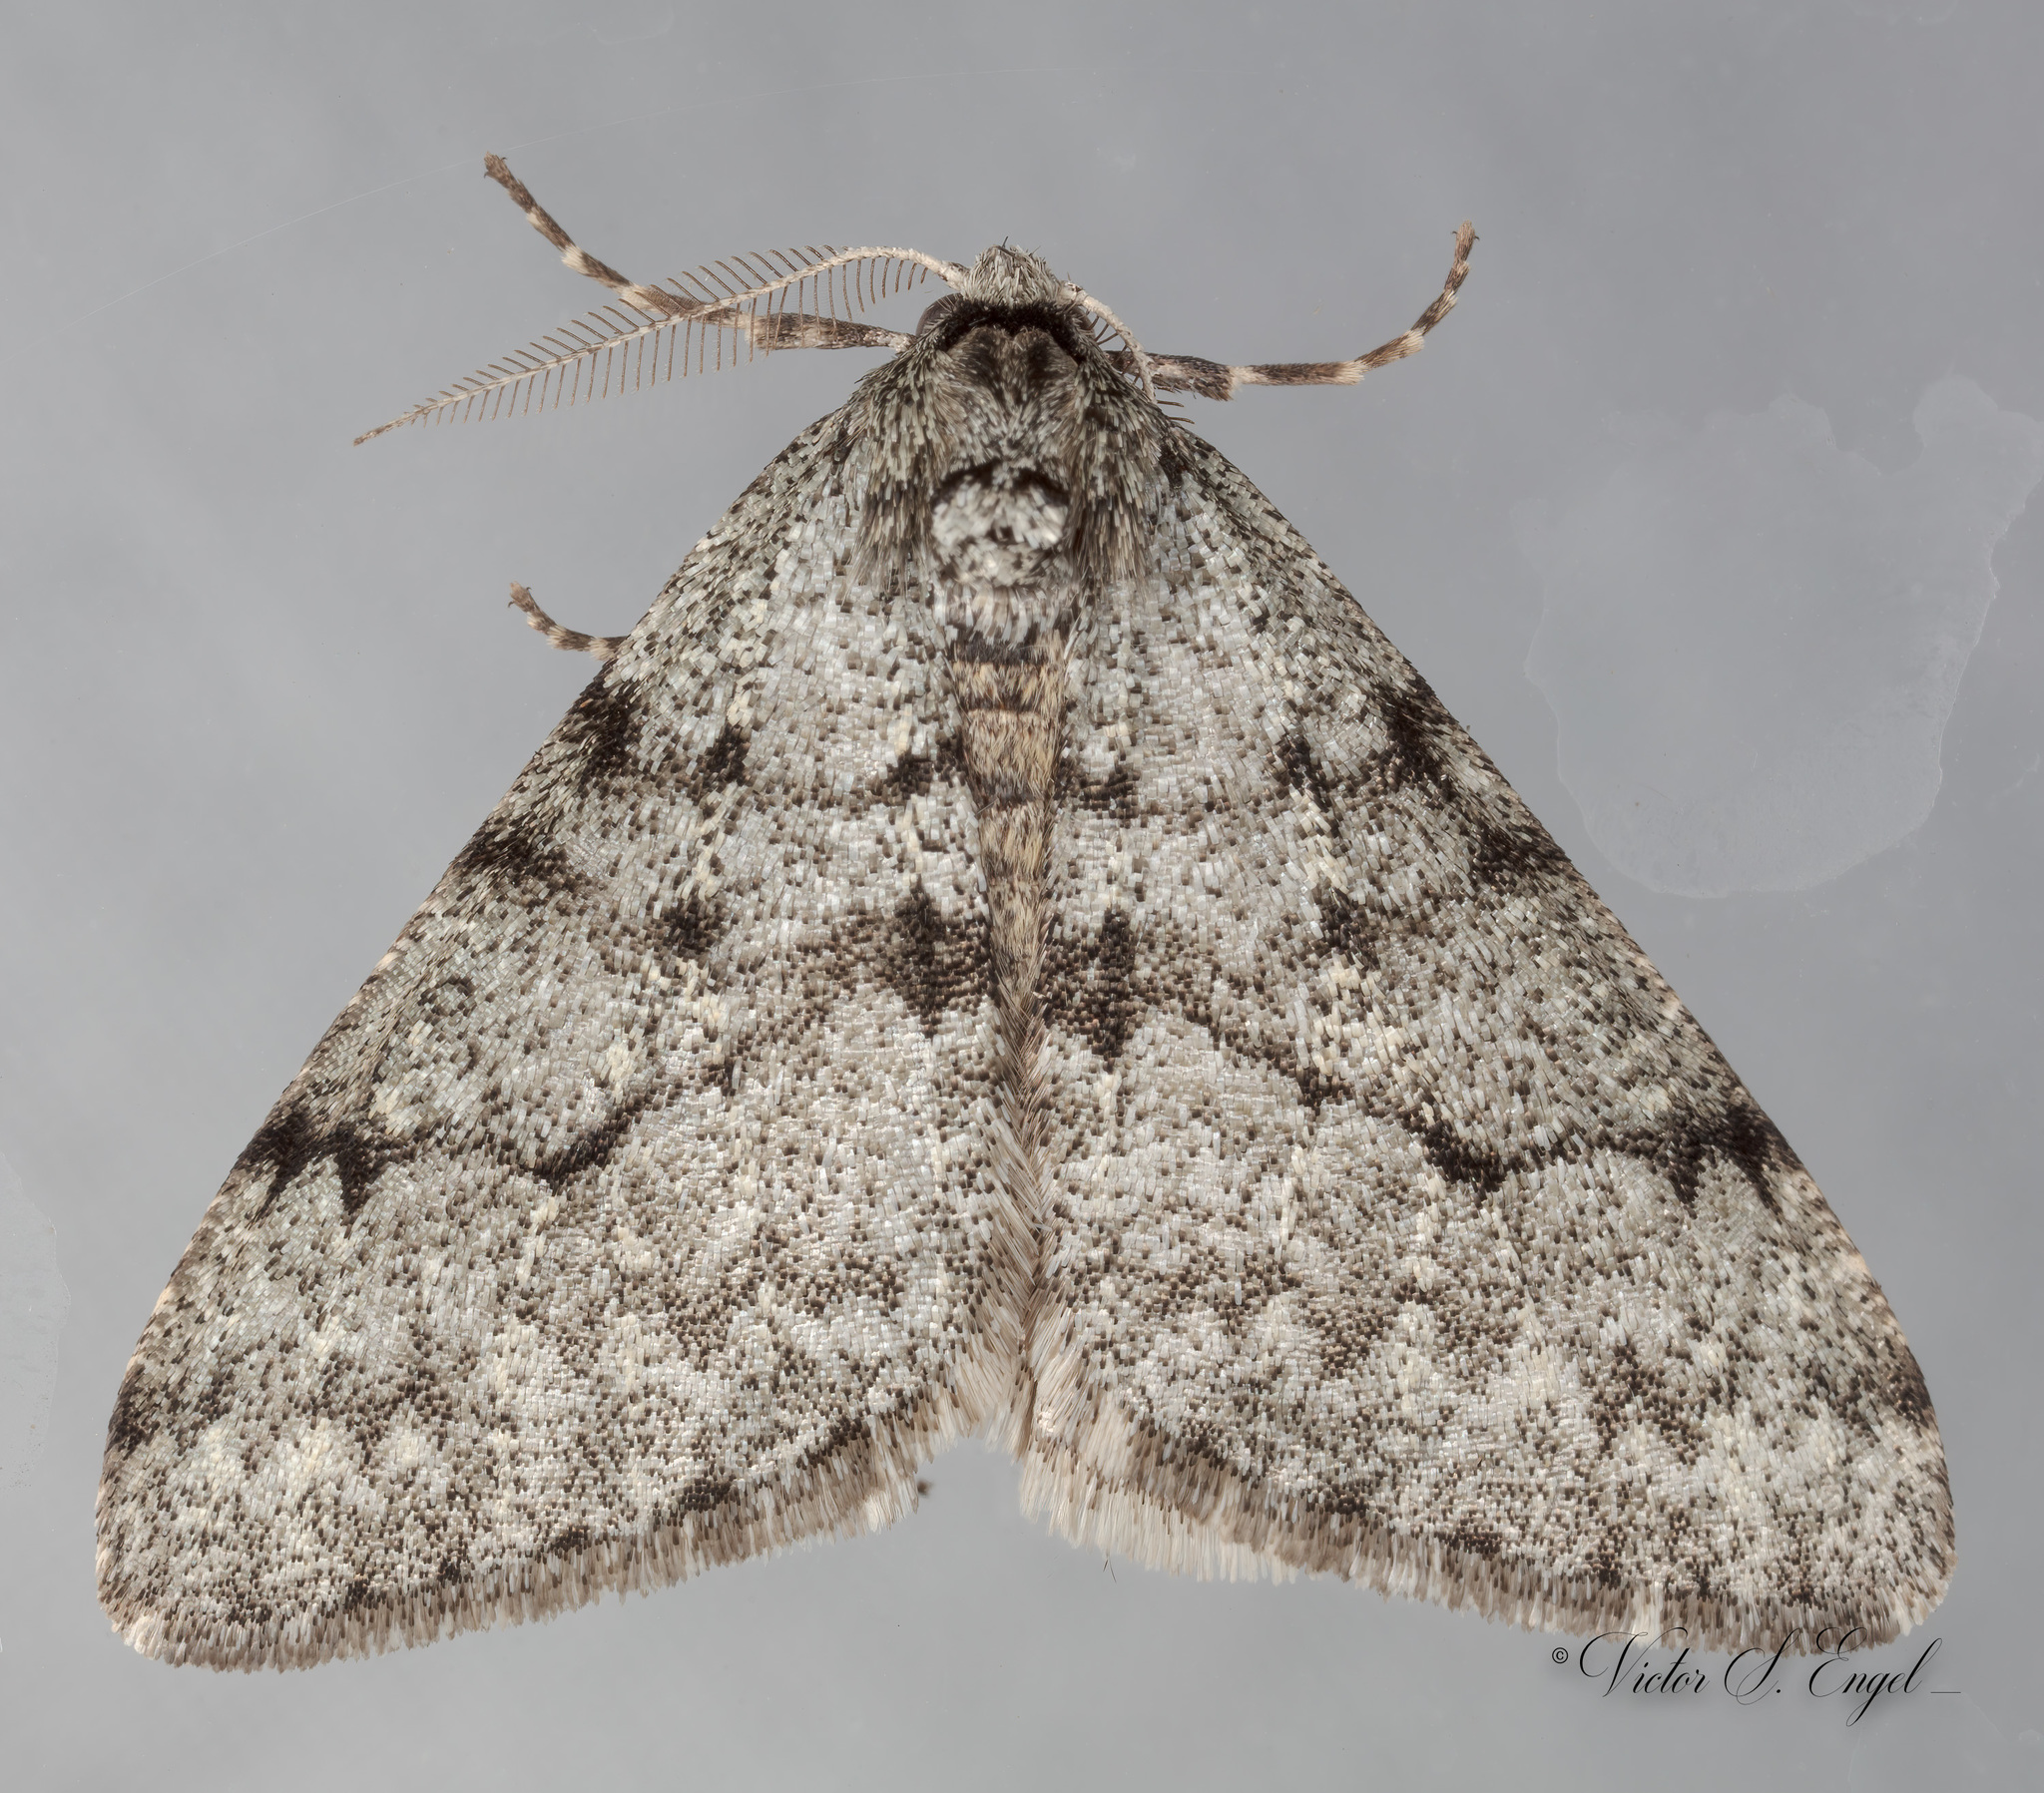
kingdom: Animalia
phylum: Arthropoda
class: Insecta
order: Lepidoptera
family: Geometridae
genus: Phigalia
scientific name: Phigalia strigataria
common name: Small phigalia
